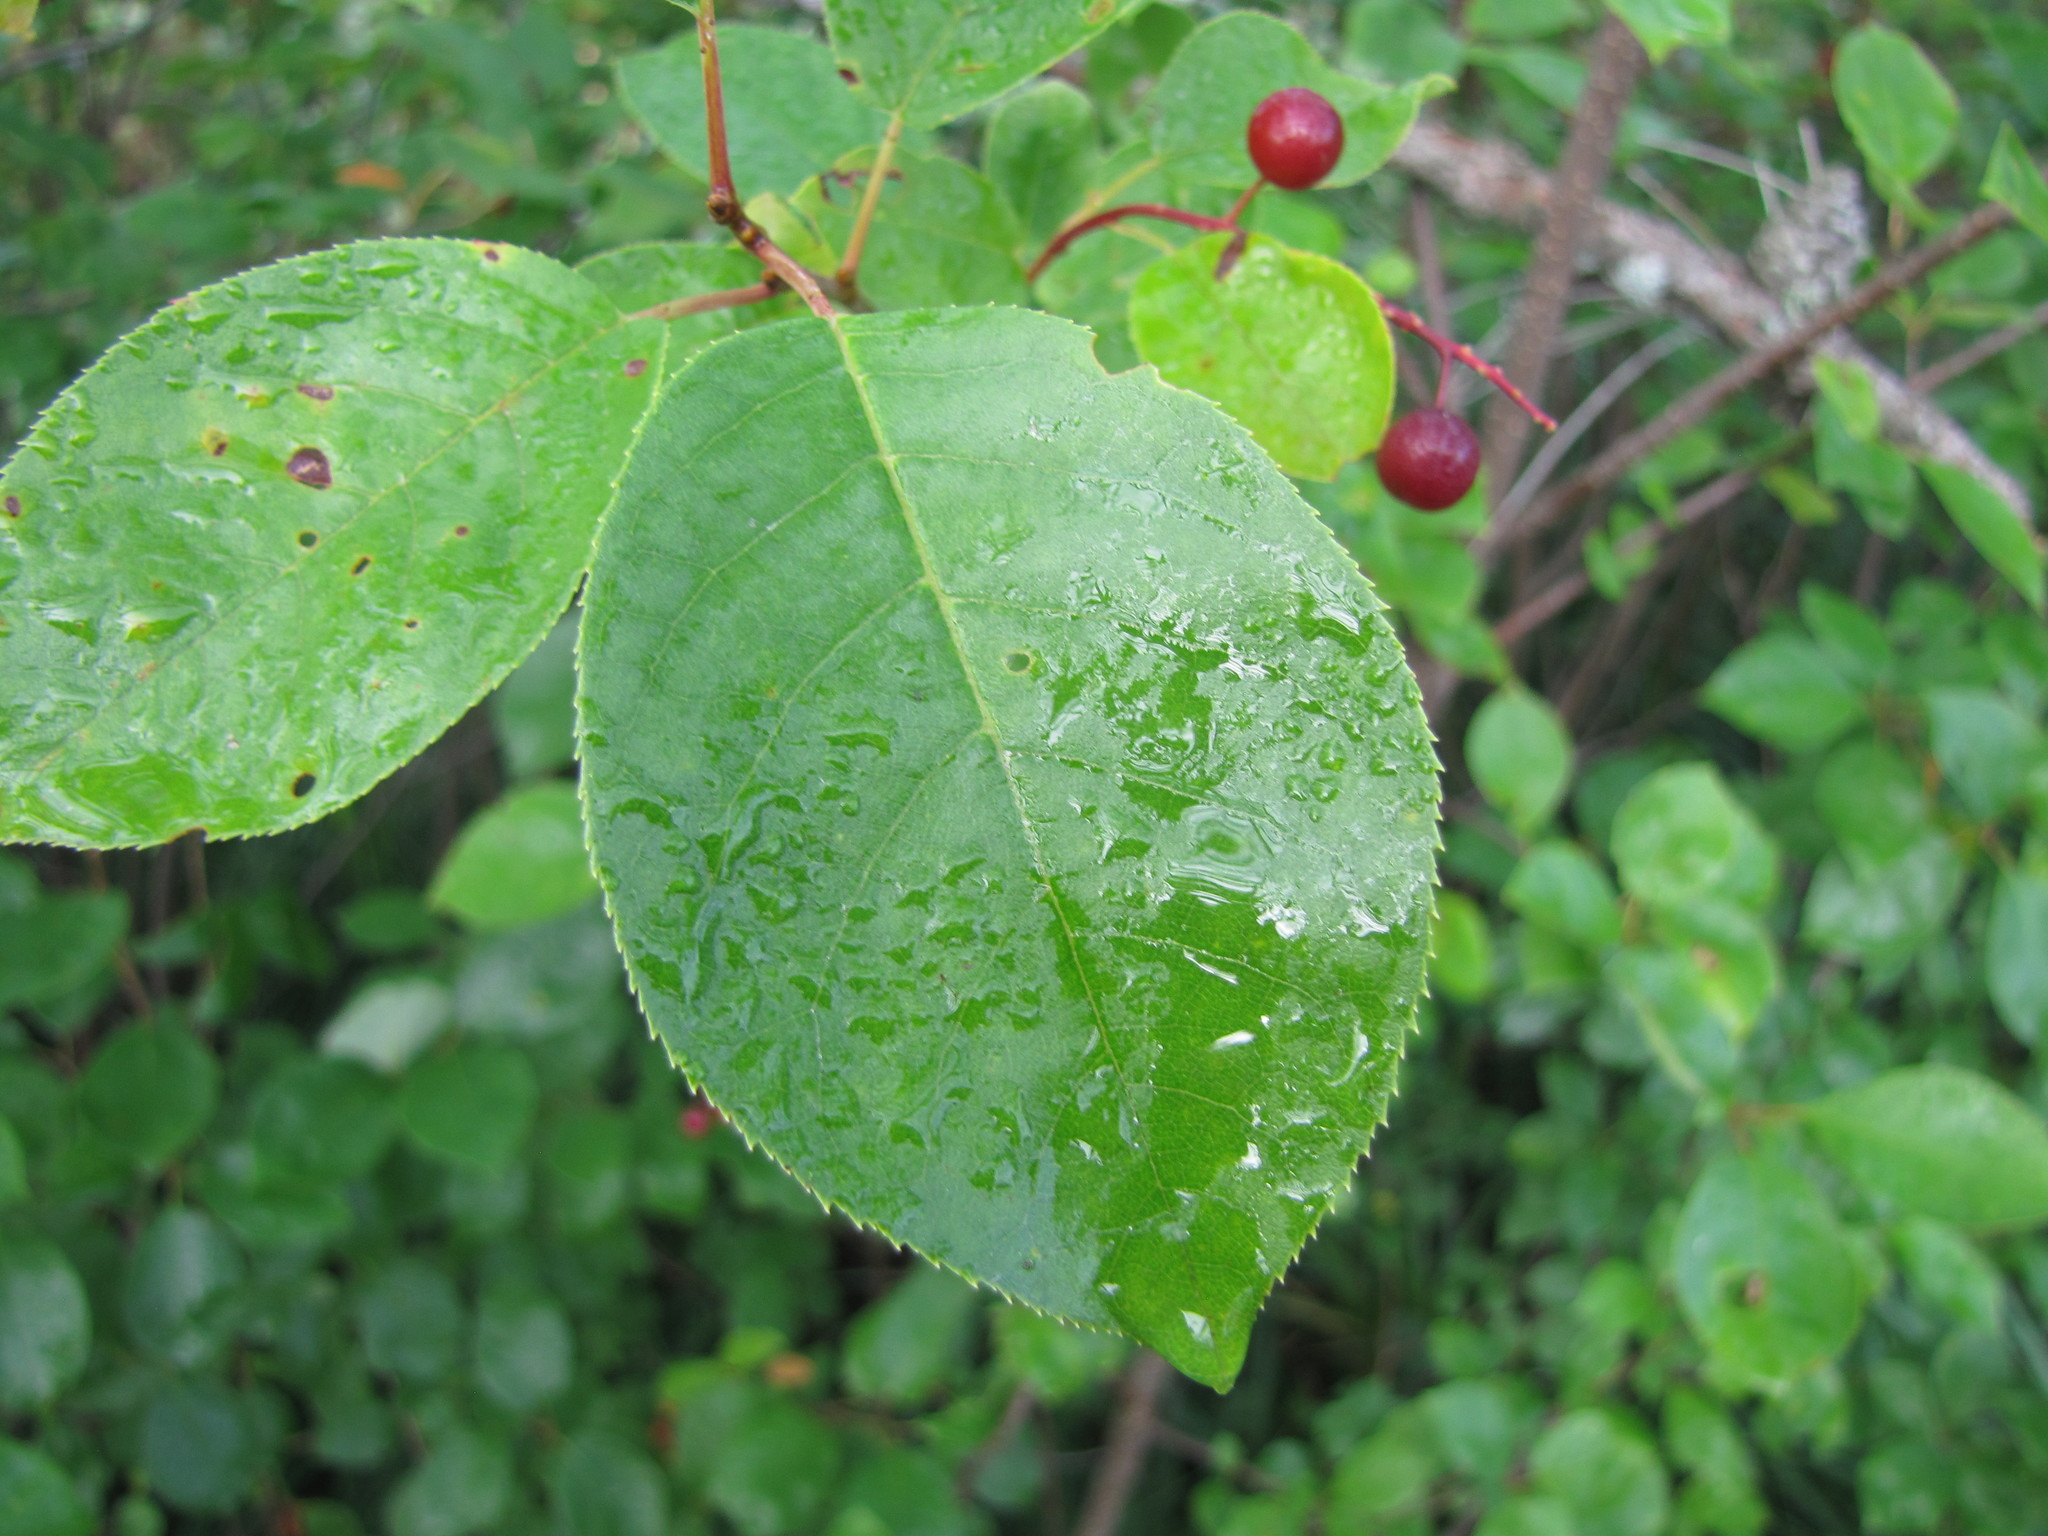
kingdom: Plantae
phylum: Tracheophyta
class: Magnoliopsida
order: Rosales
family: Rosaceae
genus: Prunus
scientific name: Prunus virginiana
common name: Chokecherry
